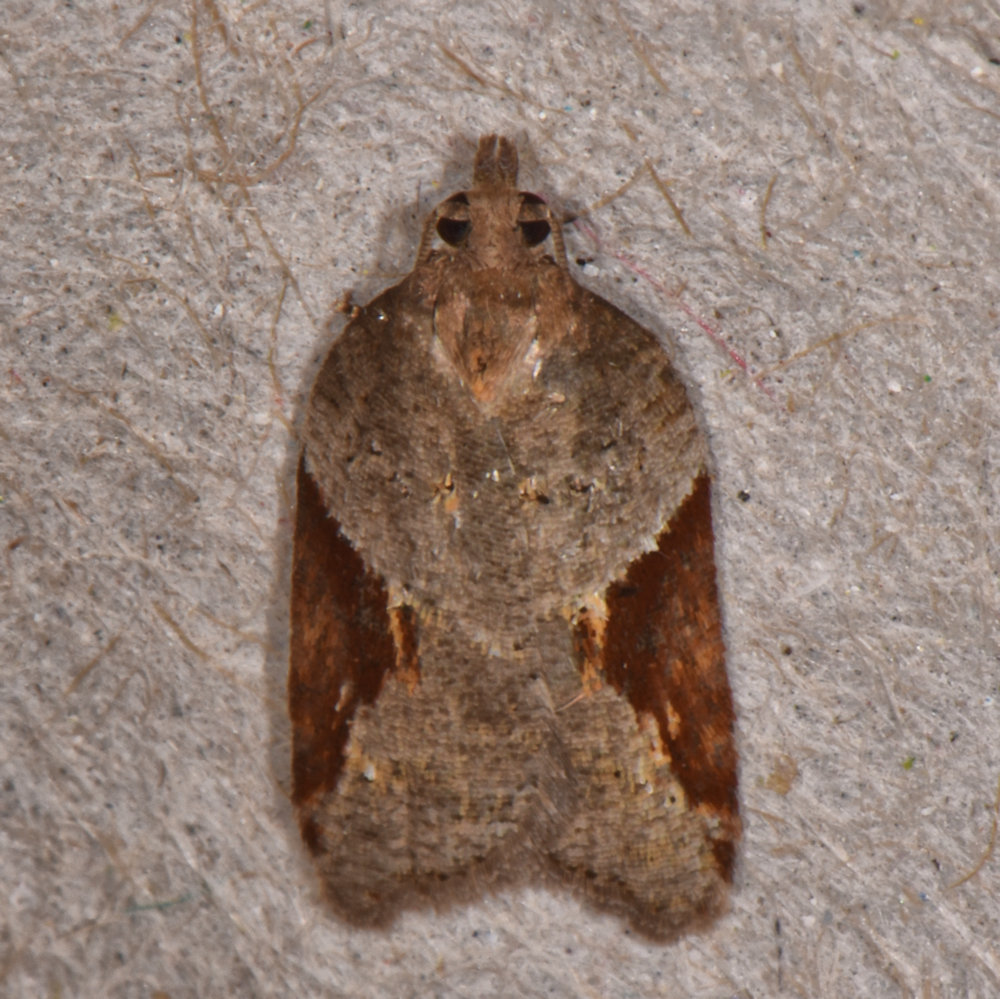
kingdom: Animalia
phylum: Arthropoda
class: Insecta
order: Lepidoptera
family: Tortricidae
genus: Acleris
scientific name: Acleris macdunnoughi
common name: Macdunnough's acleris
